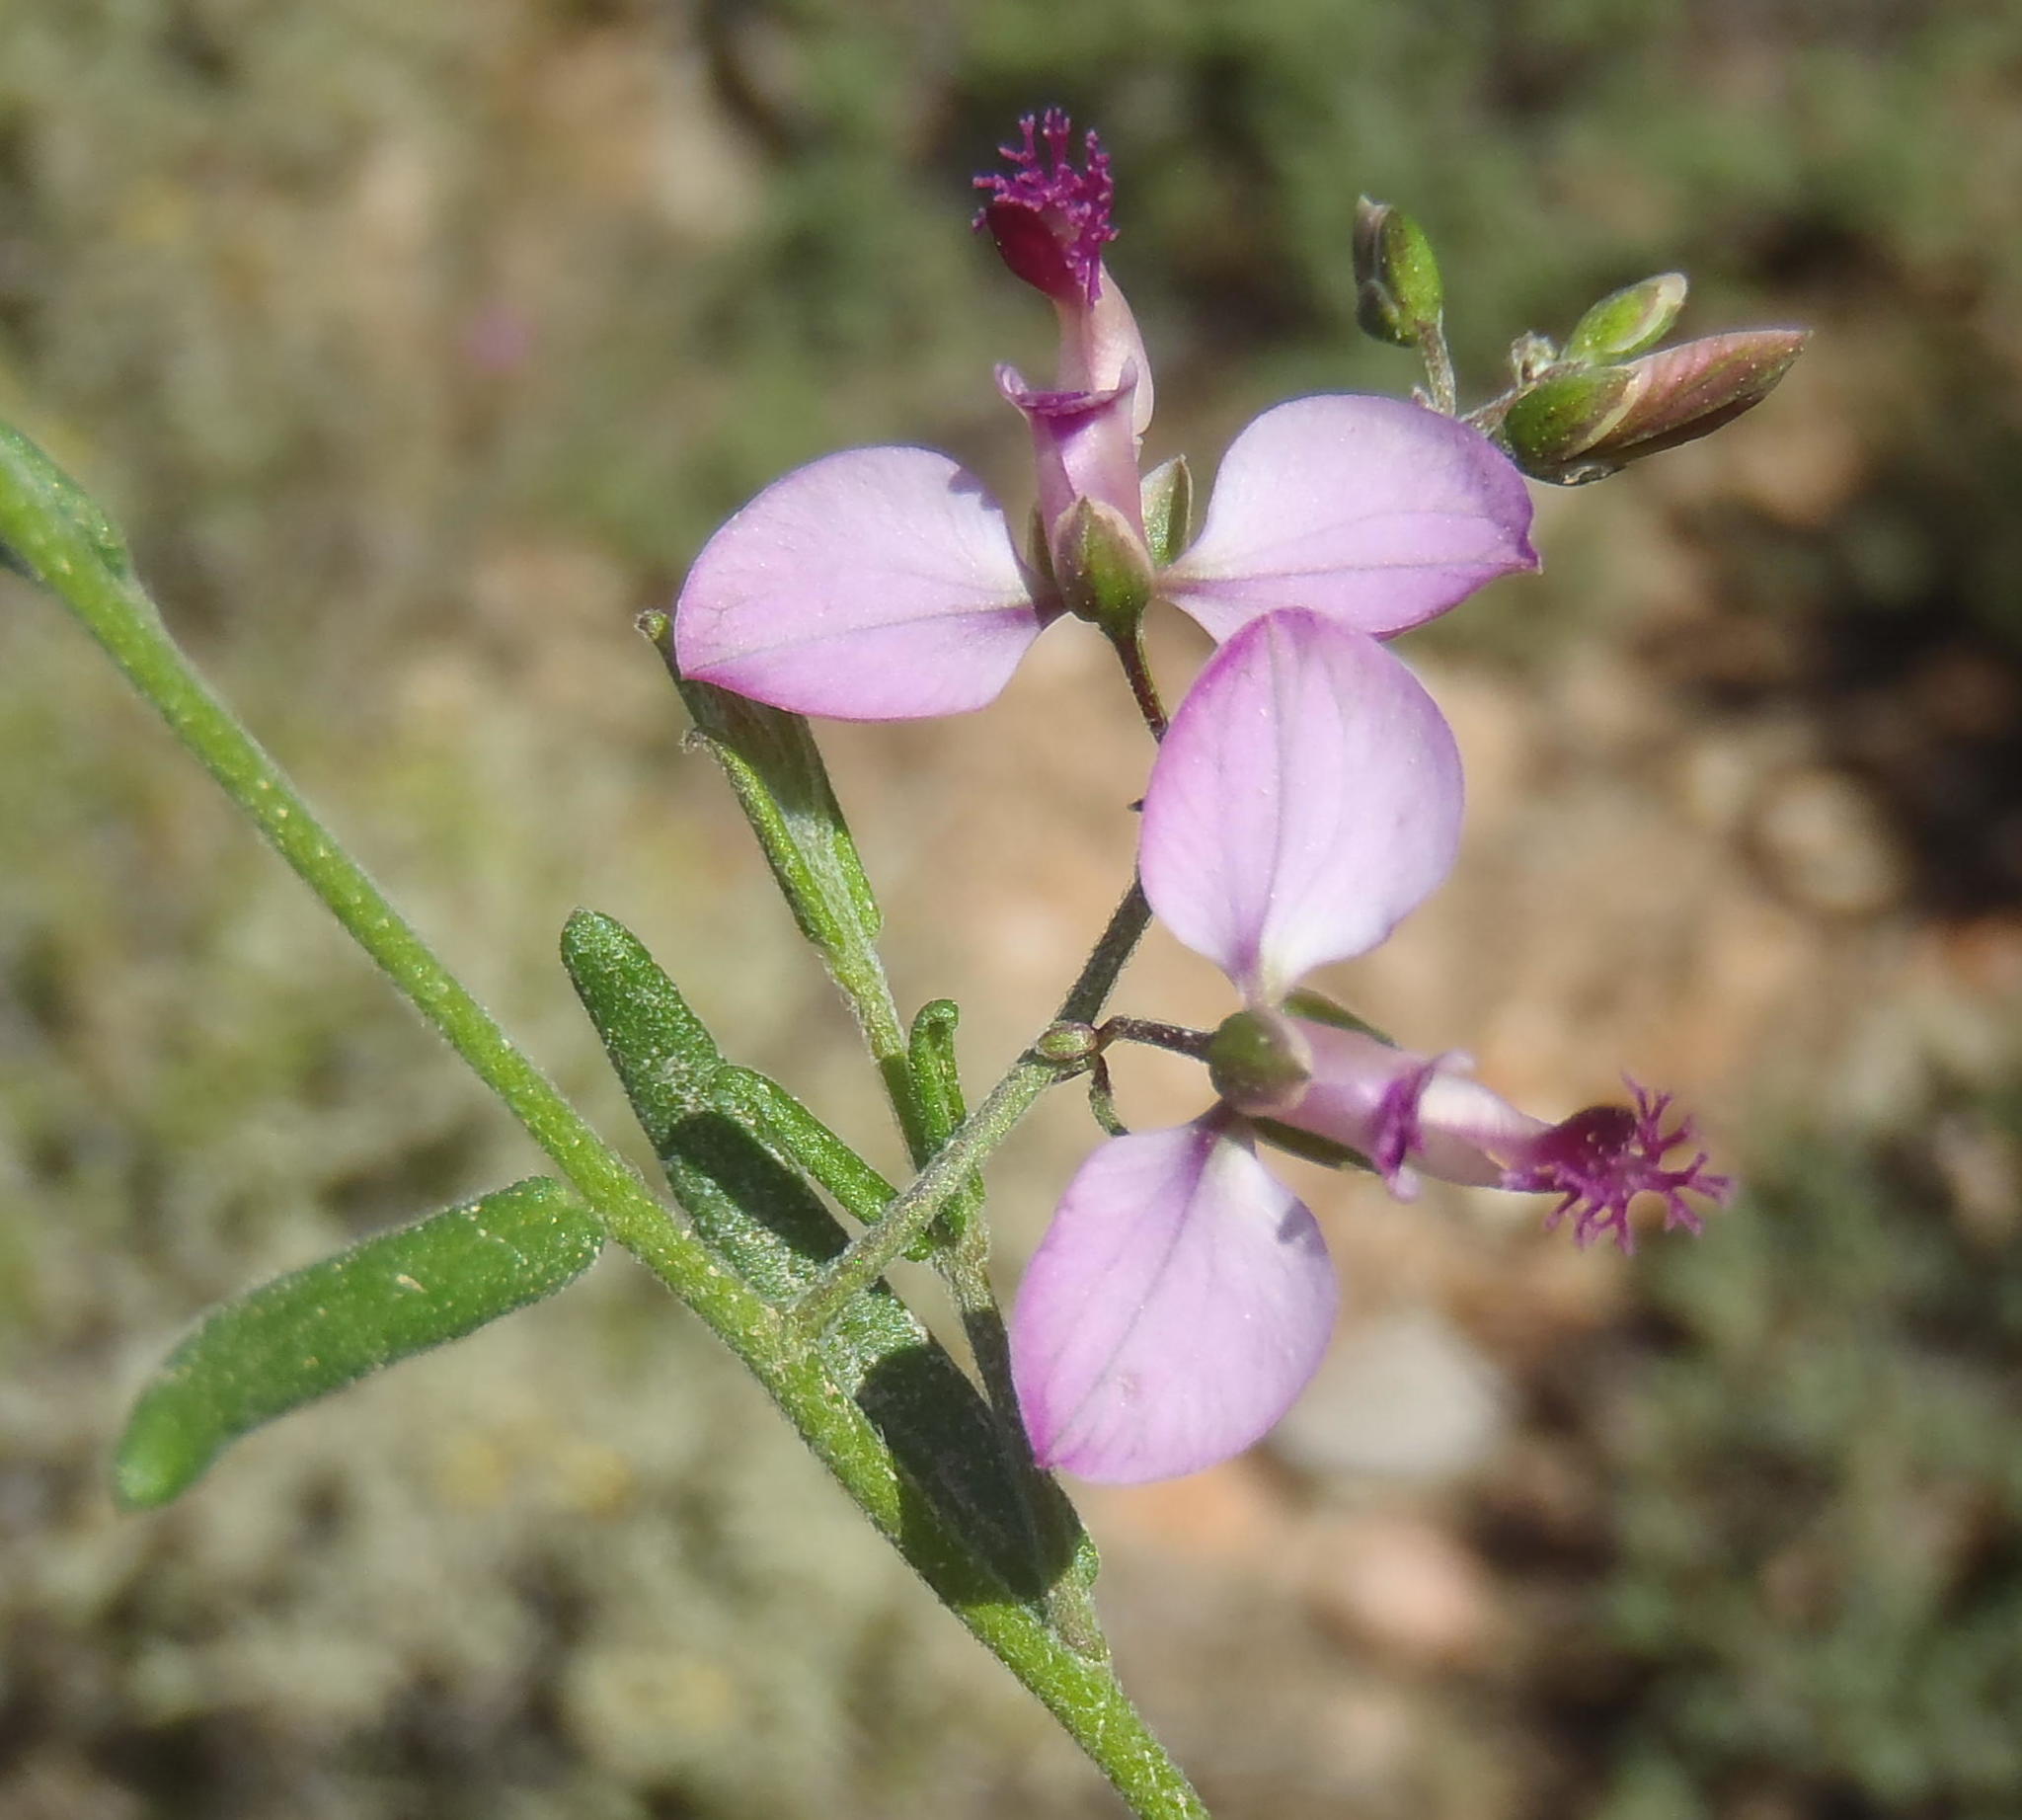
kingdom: Plantae
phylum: Tracheophyta
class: Magnoliopsida
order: Fabales
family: Polygalaceae
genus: Polygala
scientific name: Polygala scabra
